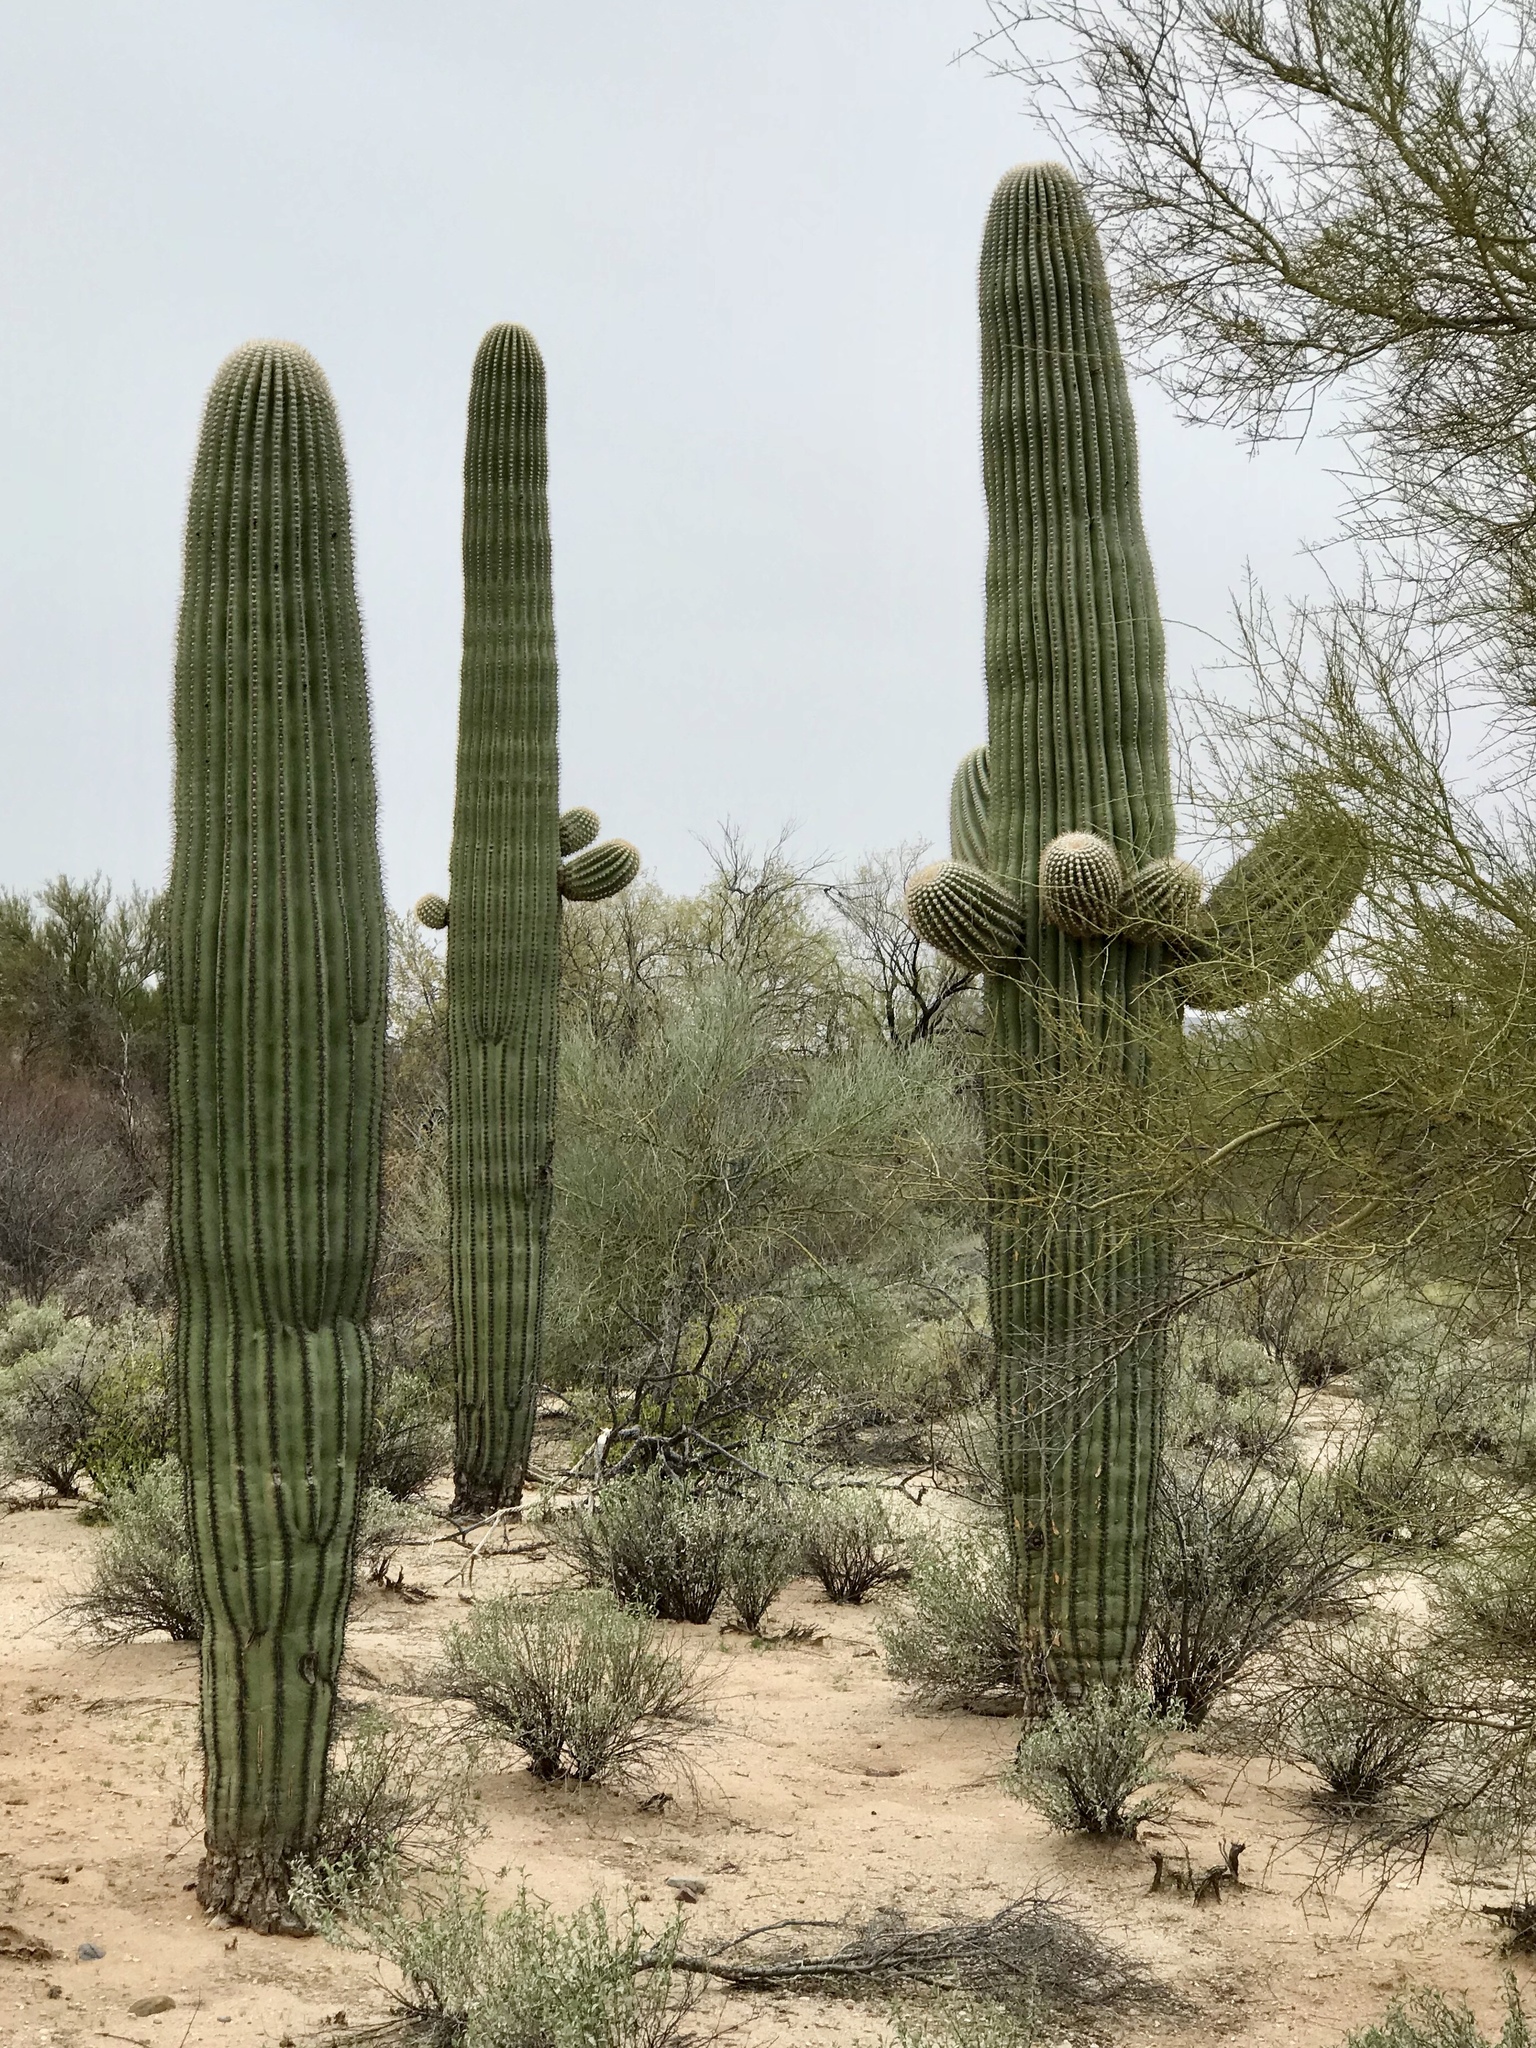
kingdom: Plantae
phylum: Tracheophyta
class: Magnoliopsida
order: Caryophyllales
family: Cactaceae
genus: Carnegiea
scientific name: Carnegiea gigantea
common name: Saguaro
